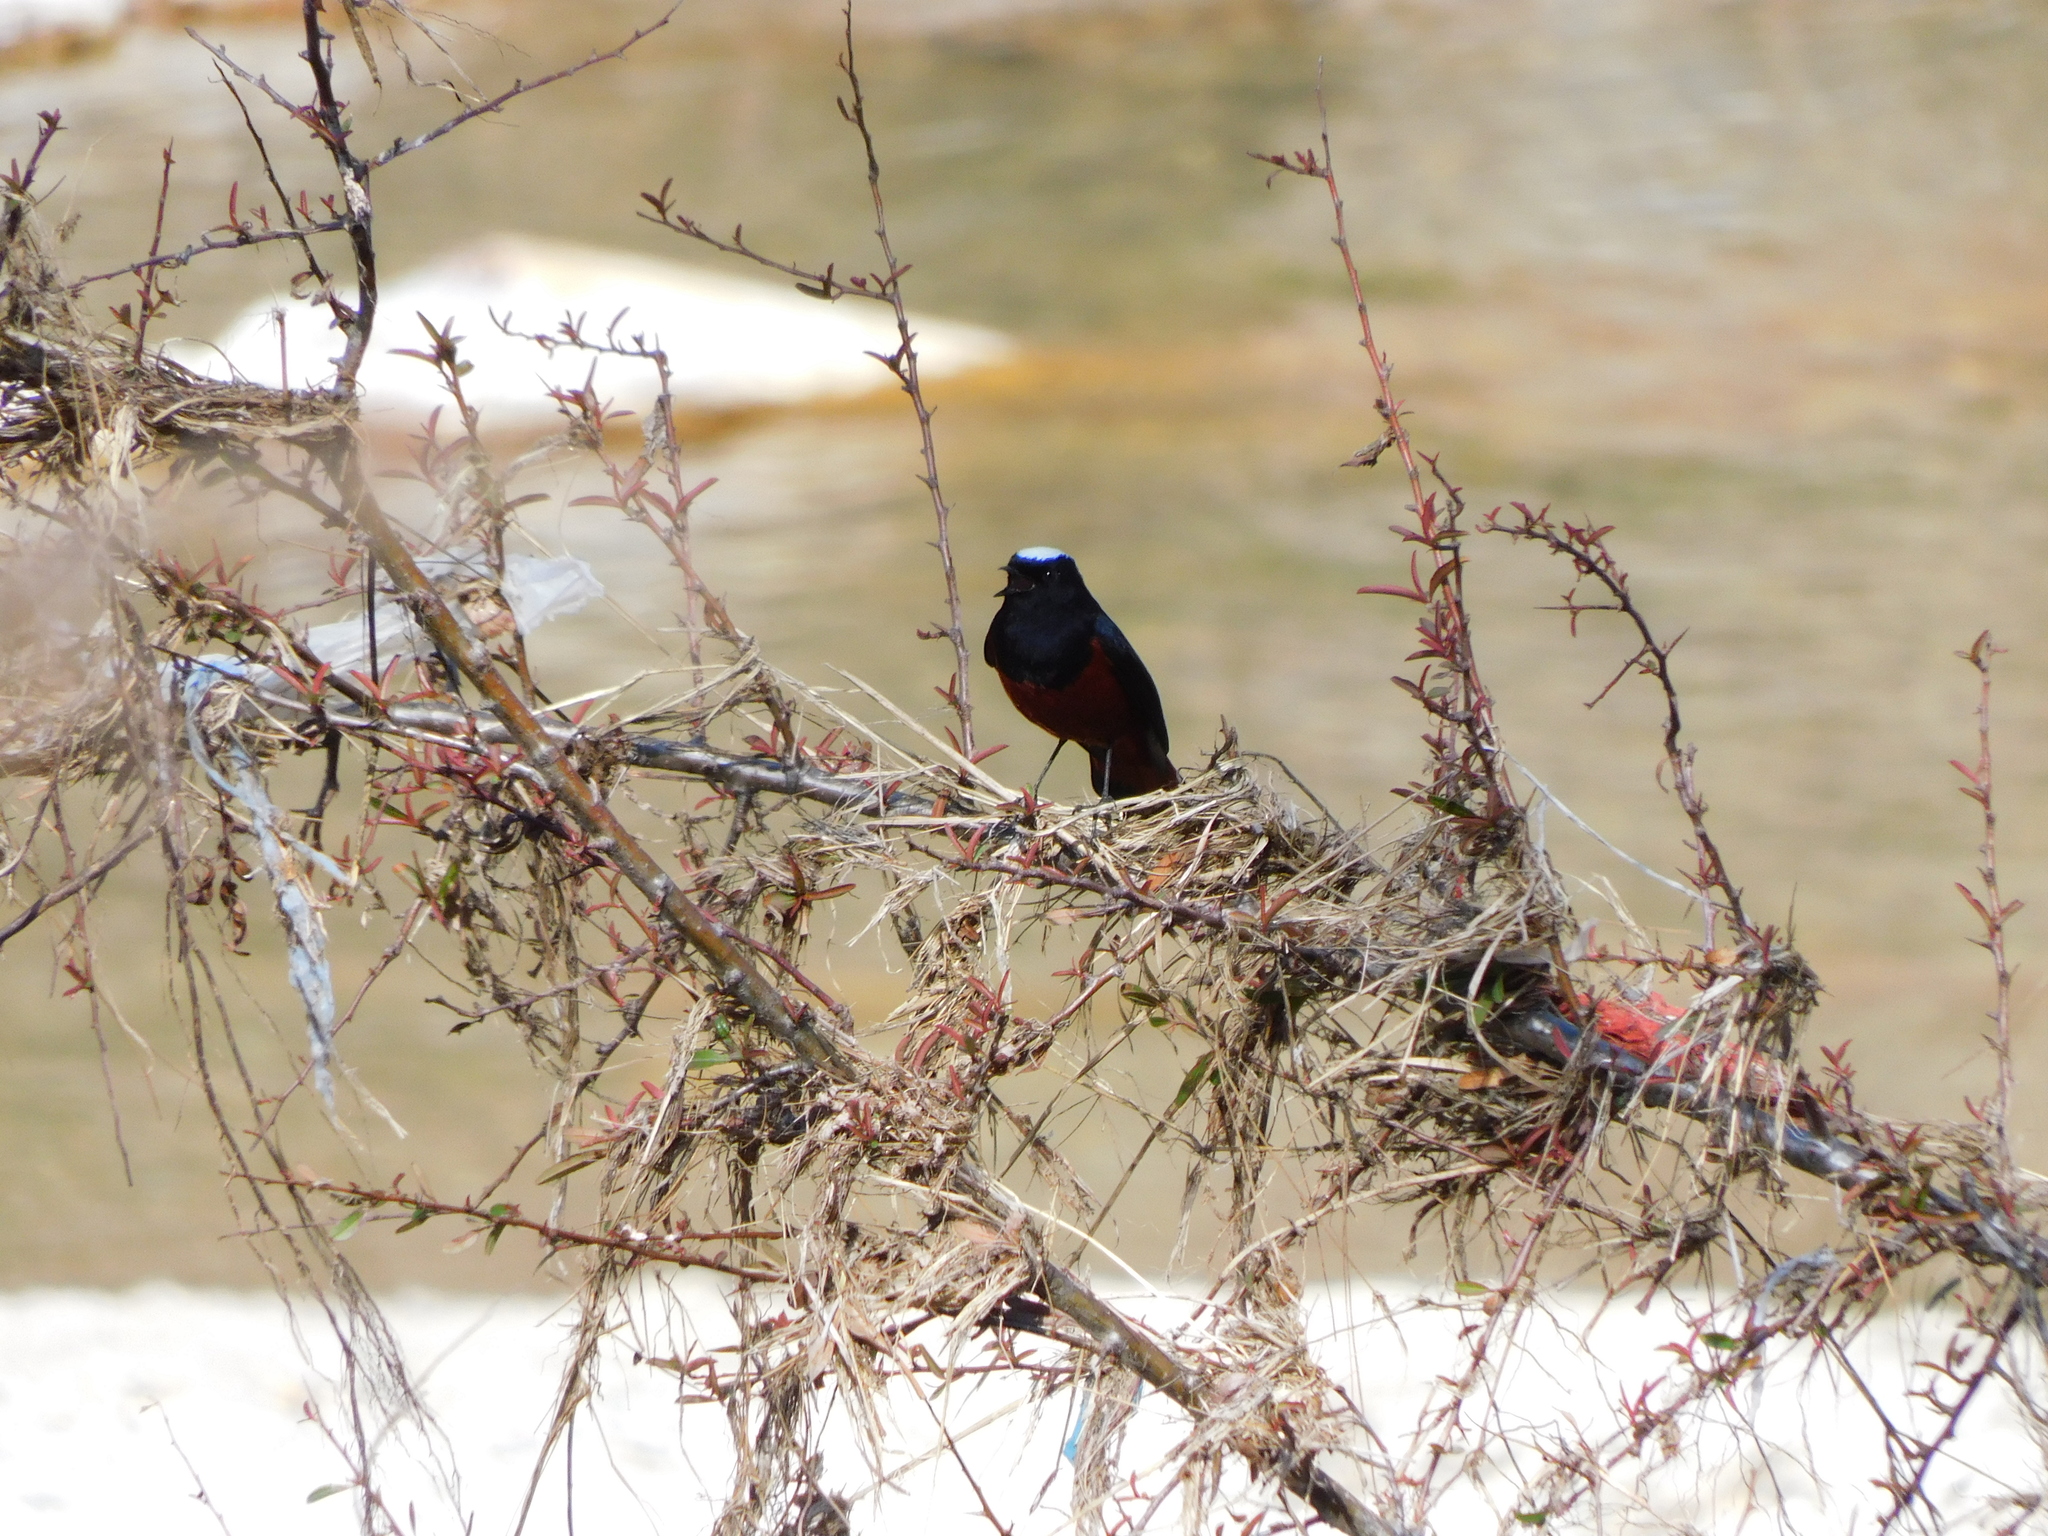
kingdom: Animalia
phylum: Chordata
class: Aves
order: Passeriformes
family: Muscicapidae
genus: Chaimarrornis
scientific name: Chaimarrornis leucocephalus
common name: White-capped redstart
